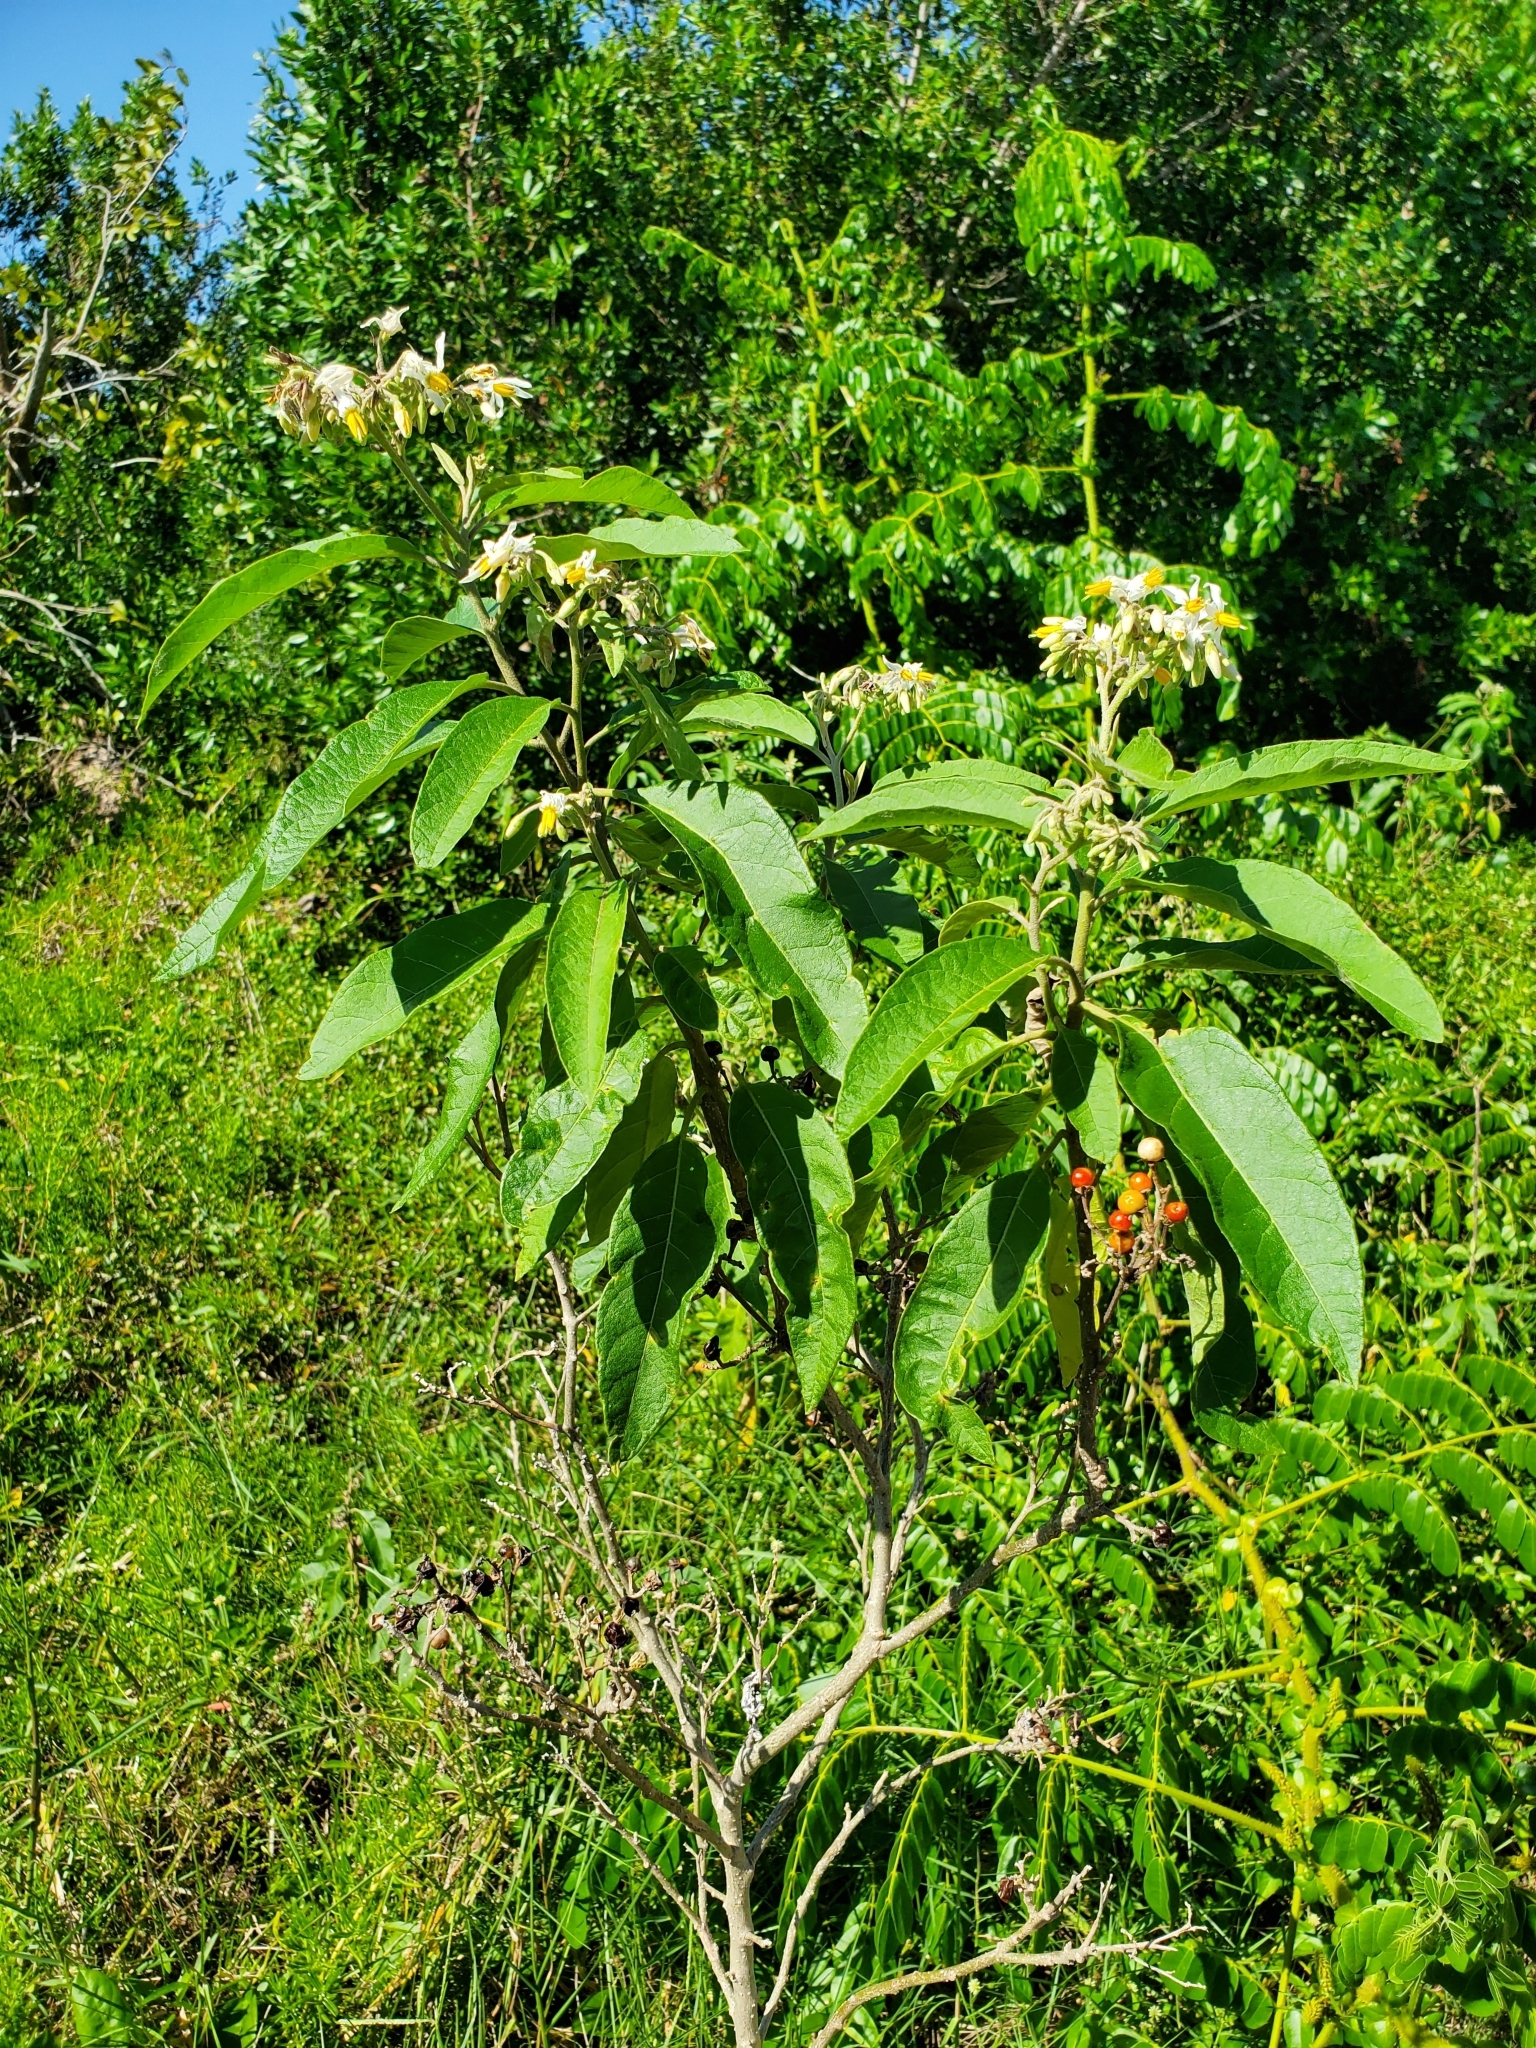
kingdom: Plantae
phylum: Tracheophyta
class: Magnoliopsida
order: Solanales
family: Solanaceae
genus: Solanum
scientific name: Solanum donianum
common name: Mullein nightshade
